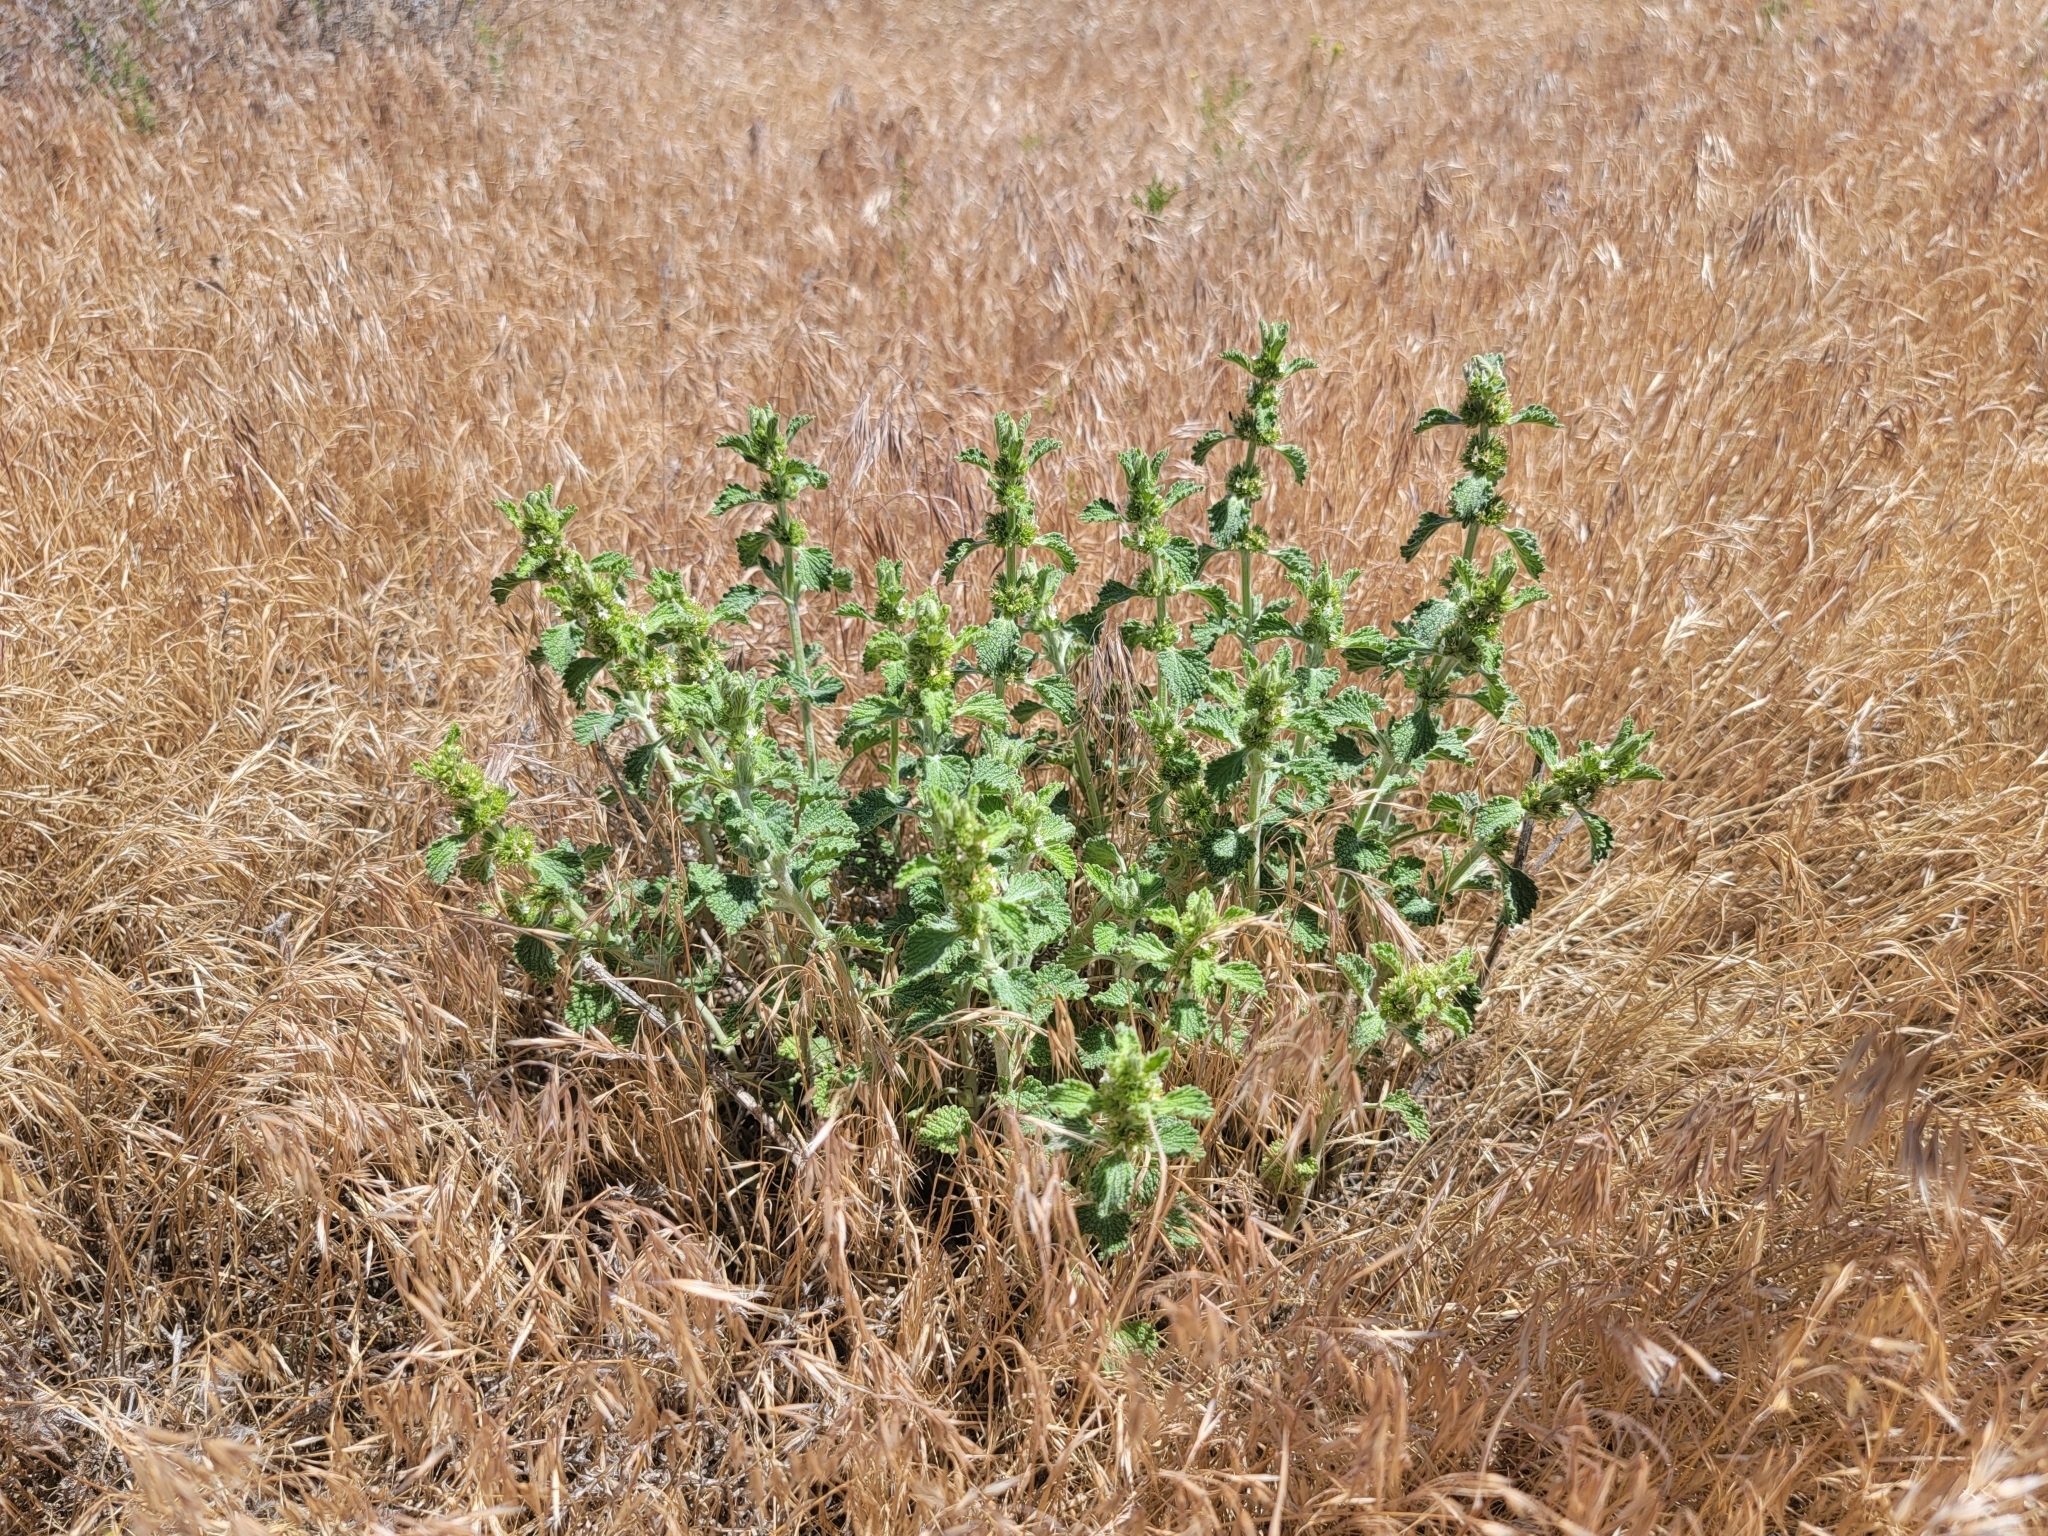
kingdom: Plantae
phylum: Tracheophyta
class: Magnoliopsida
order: Lamiales
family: Lamiaceae
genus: Marrubium
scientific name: Marrubium vulgare
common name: Horehound
